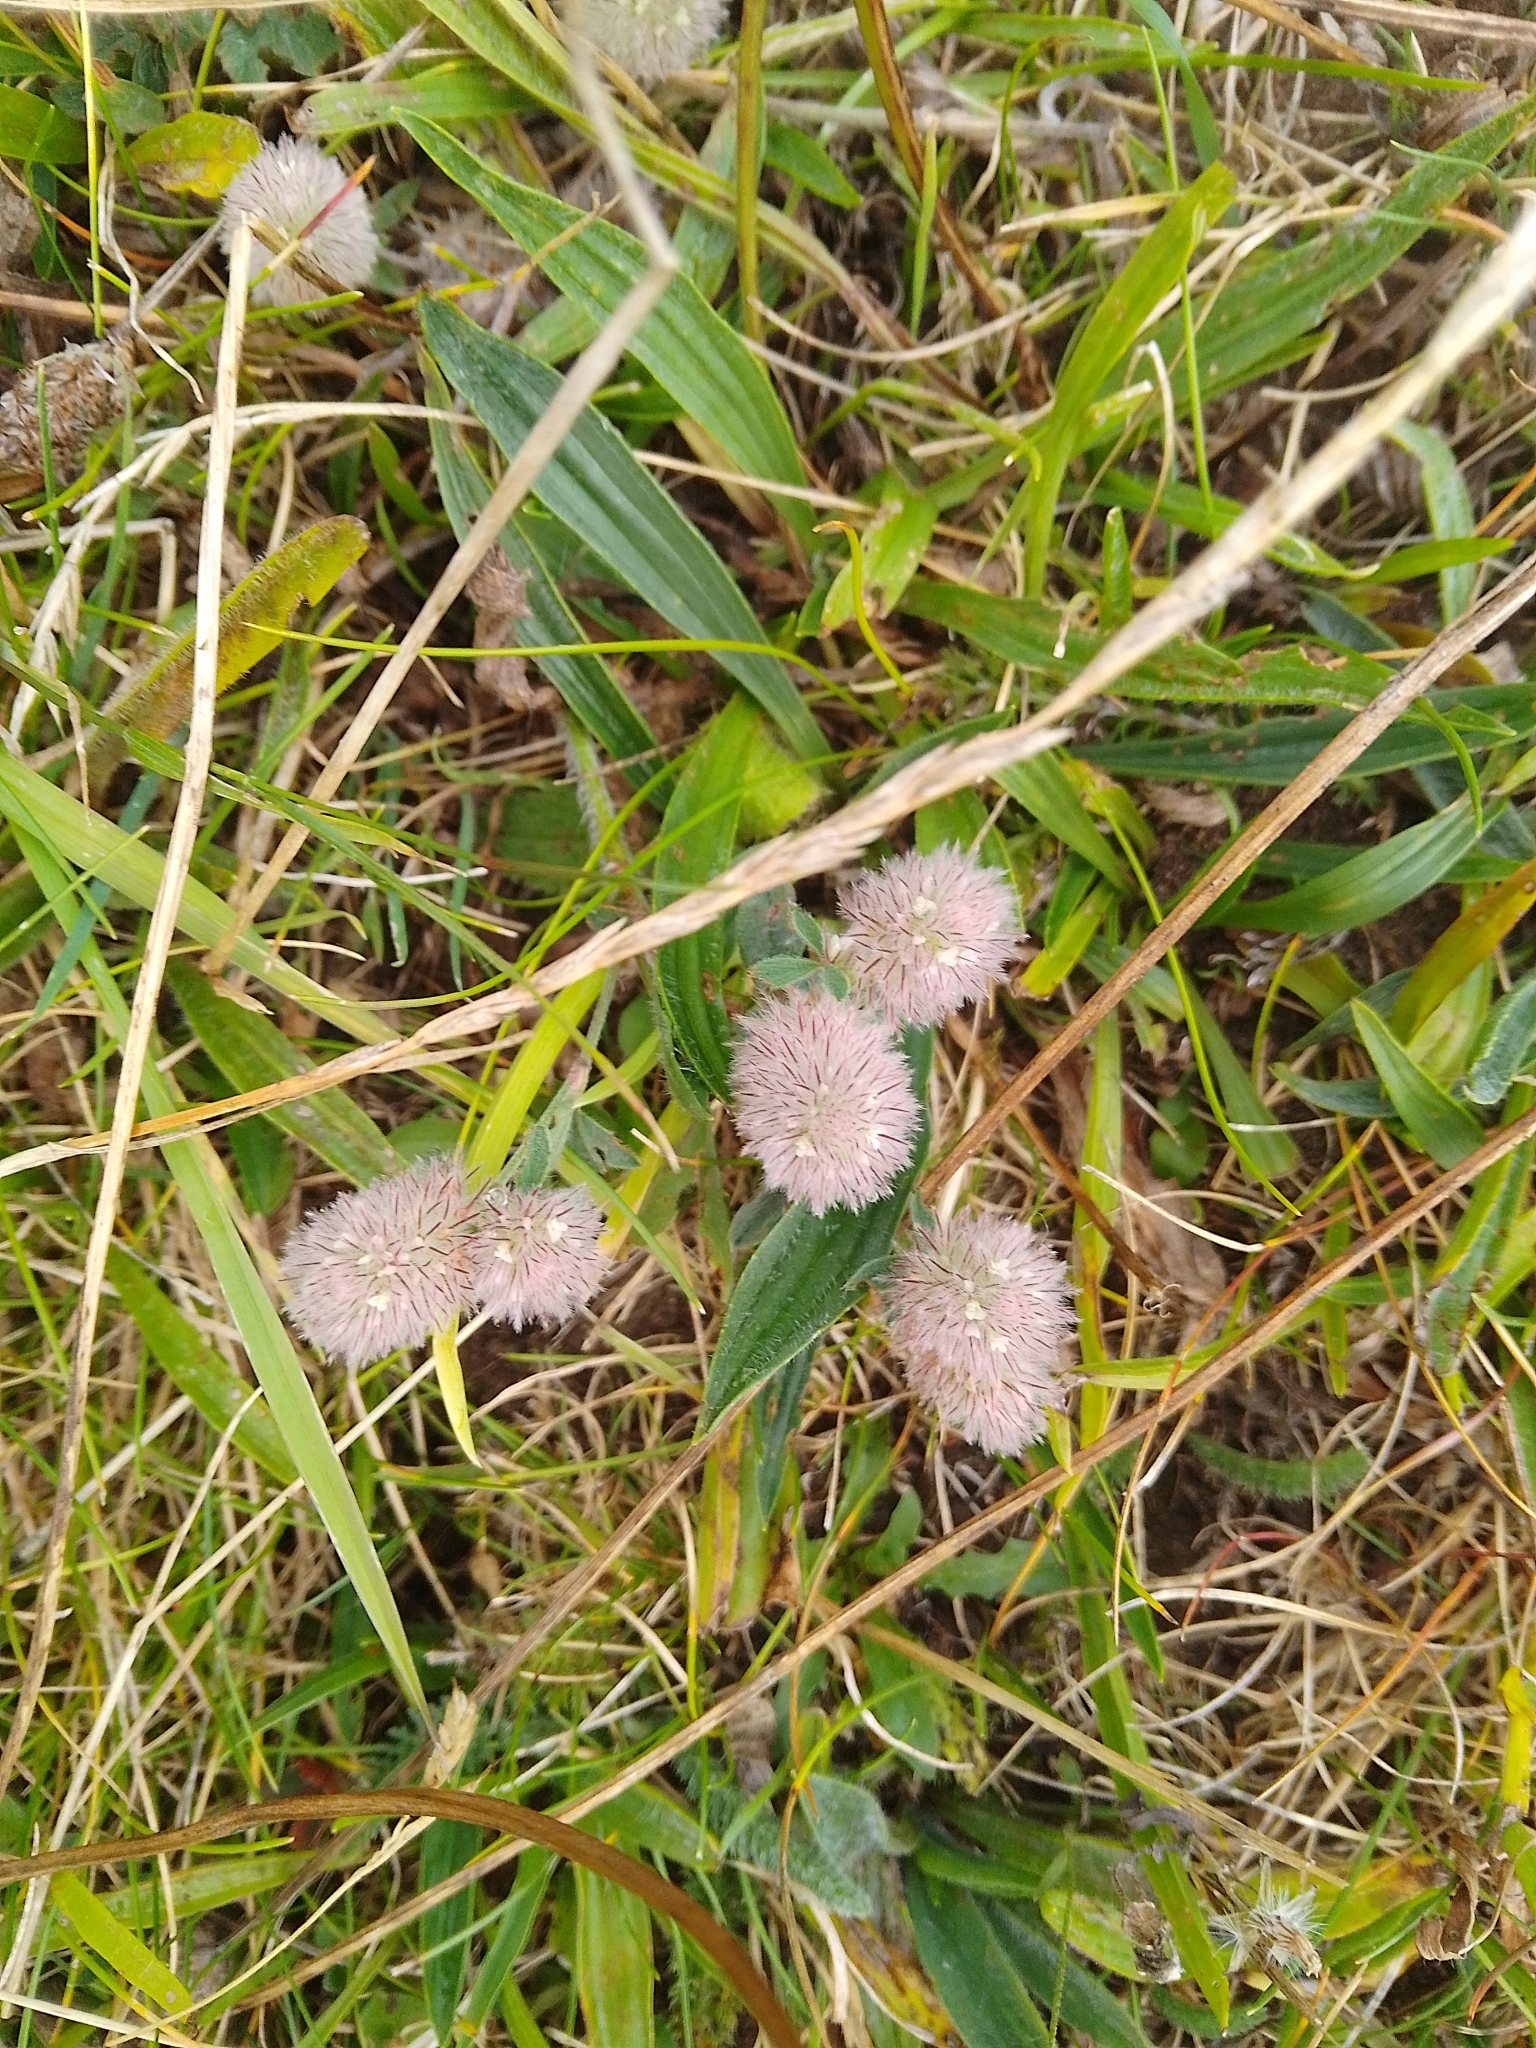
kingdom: Plantae
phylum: Tracheophyta
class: Magnoliopsida
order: Fabales
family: Fabaceae
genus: Trifolium
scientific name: Trifolium arvense
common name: Hare's-foot clover
